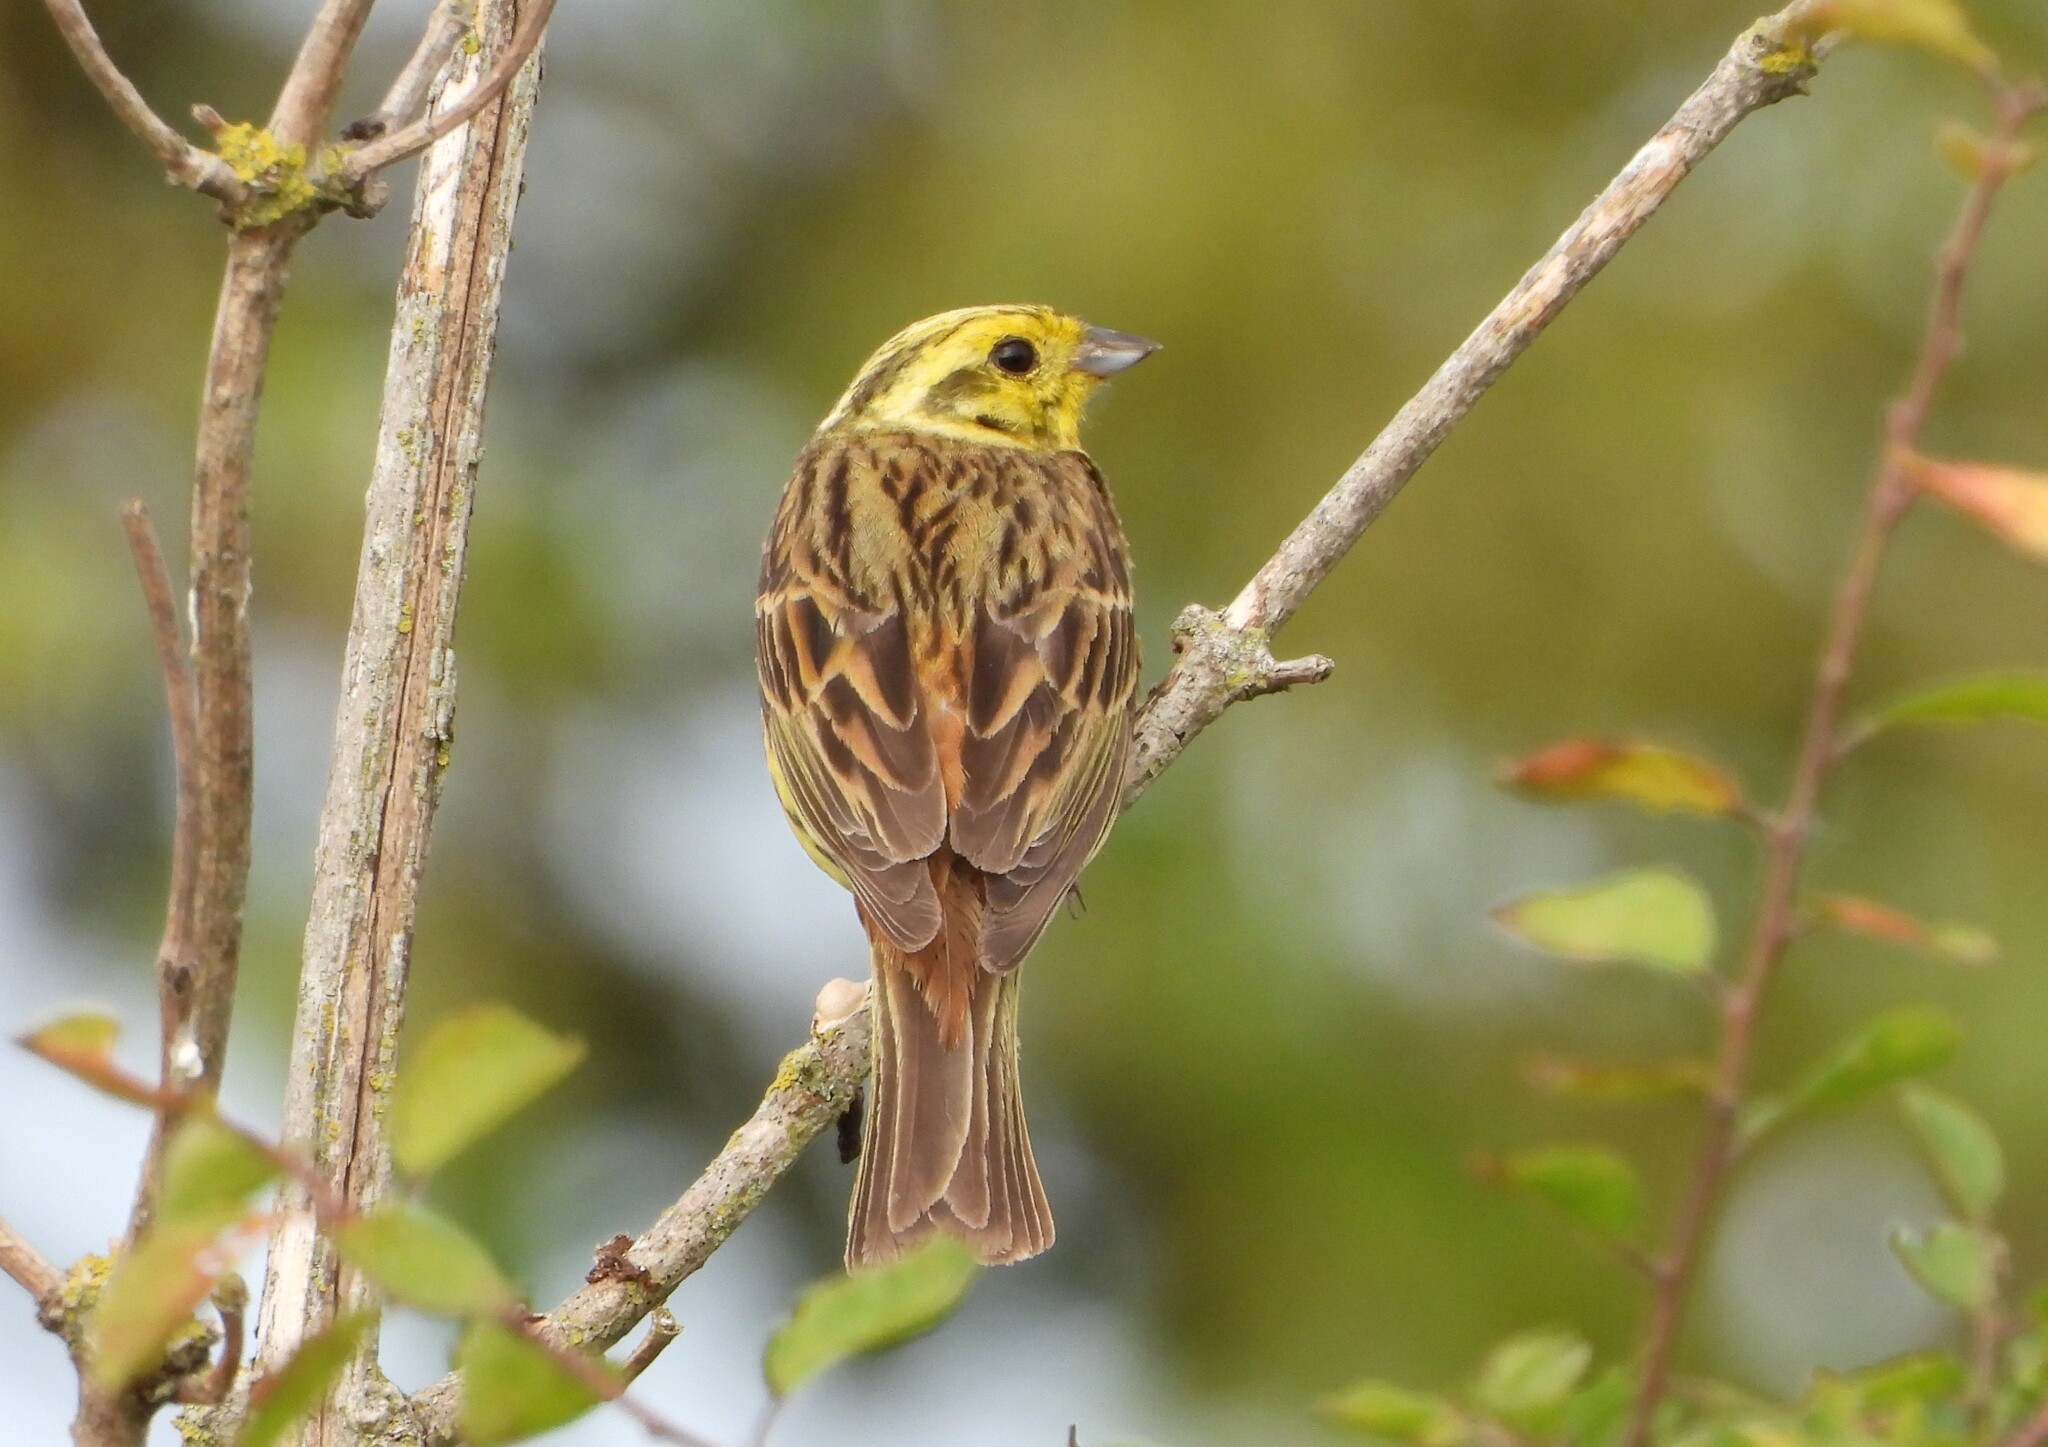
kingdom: Animalia
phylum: Chordata
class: Aves
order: Passeriformes
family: Emberizidae
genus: Emberiza
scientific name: Emberiza citrinella
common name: Yellowhammer
